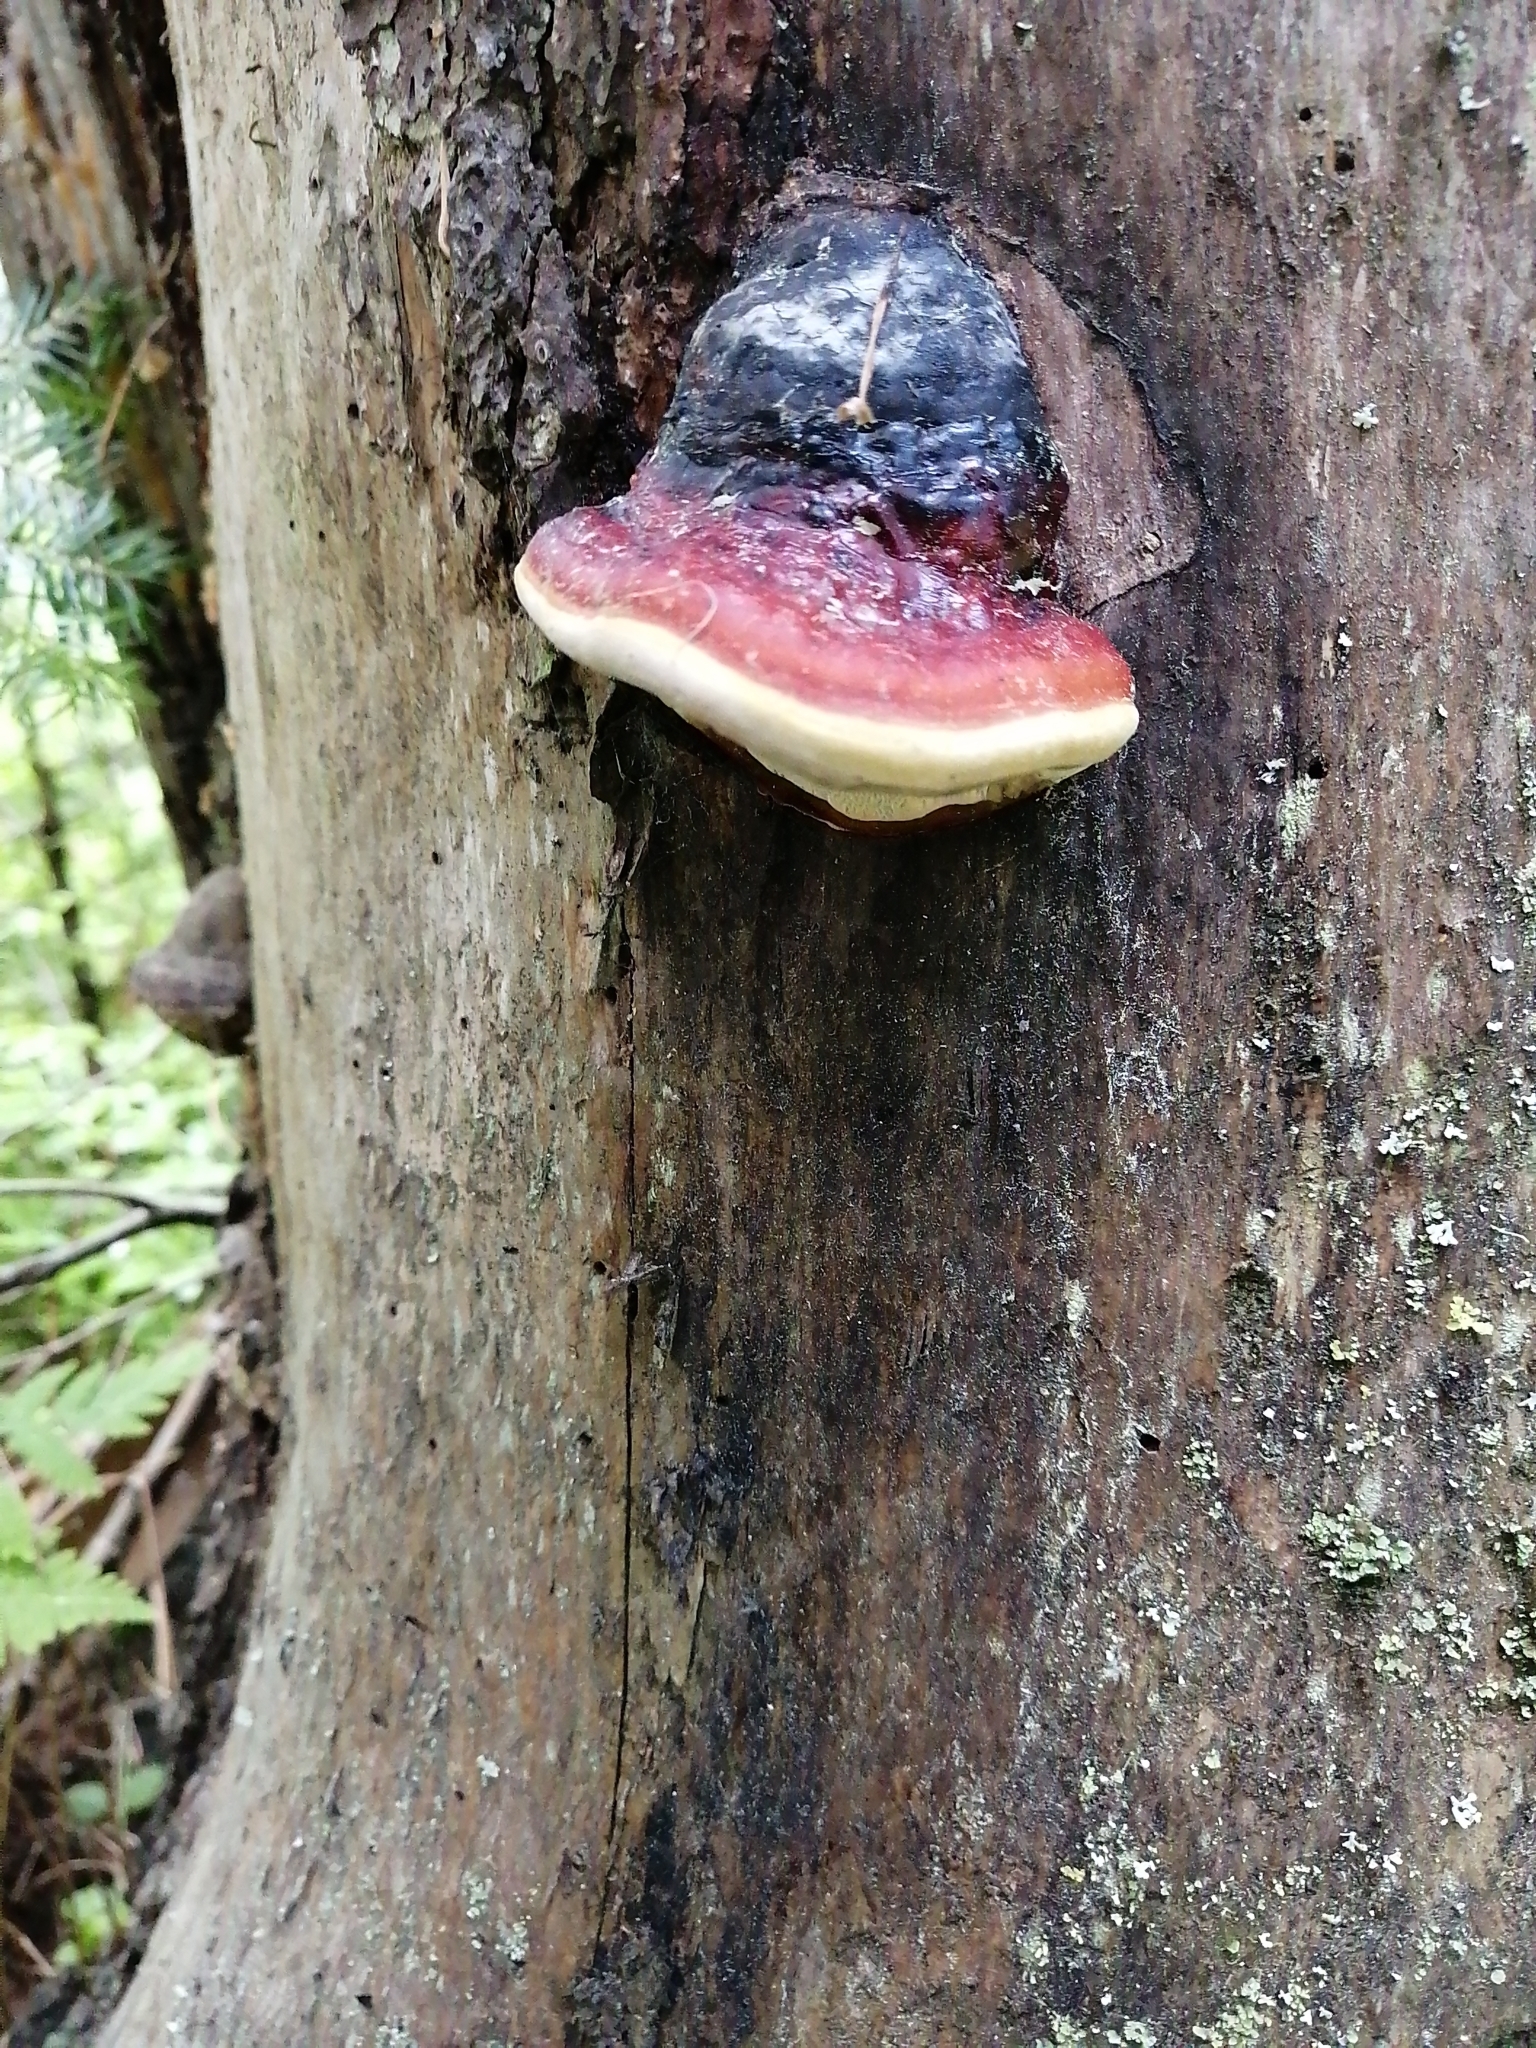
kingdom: Fungi
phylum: Basidiomycota
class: Agaricomycetes
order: Polyporales
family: Fomitopsidaceae
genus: Fomitopsis
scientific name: Fomitopsis pinicola
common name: Red-belted bracket
